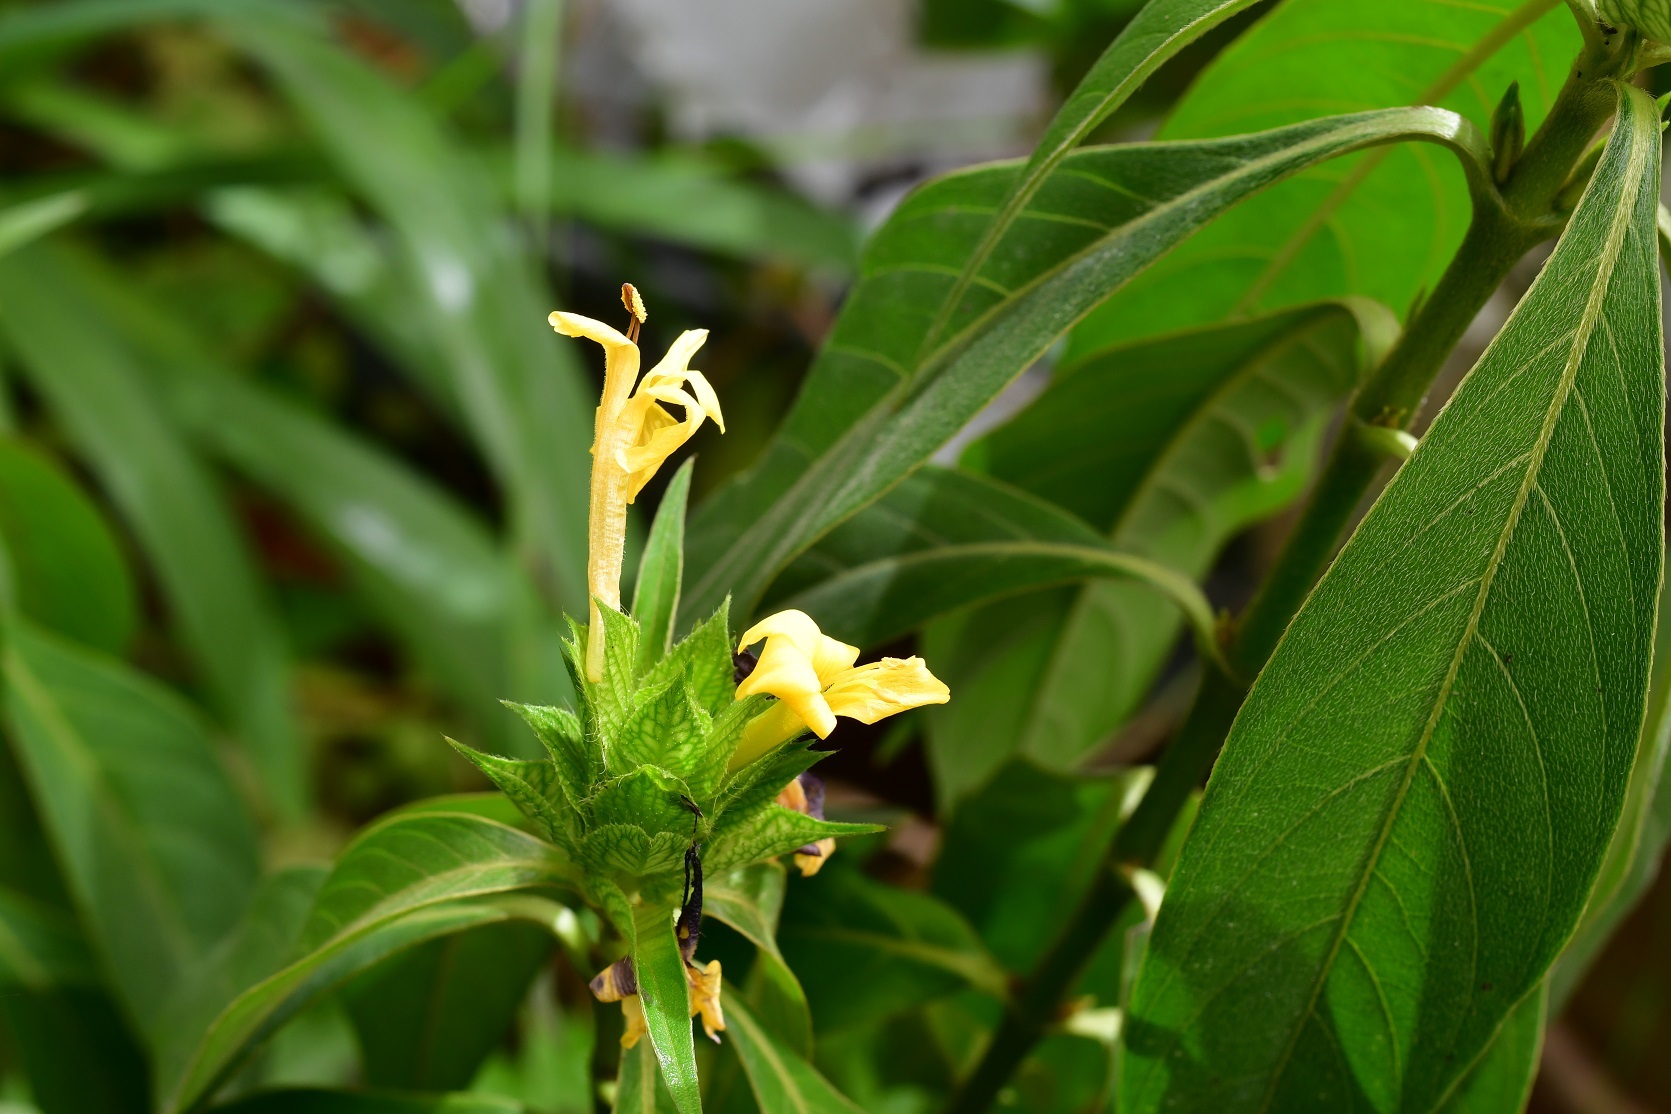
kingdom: Plantae
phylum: Tracheophyta
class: Magnoliopsida
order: Lamiales
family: Acanthaceae
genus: Barleria
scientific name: Barleria oenotheroides
